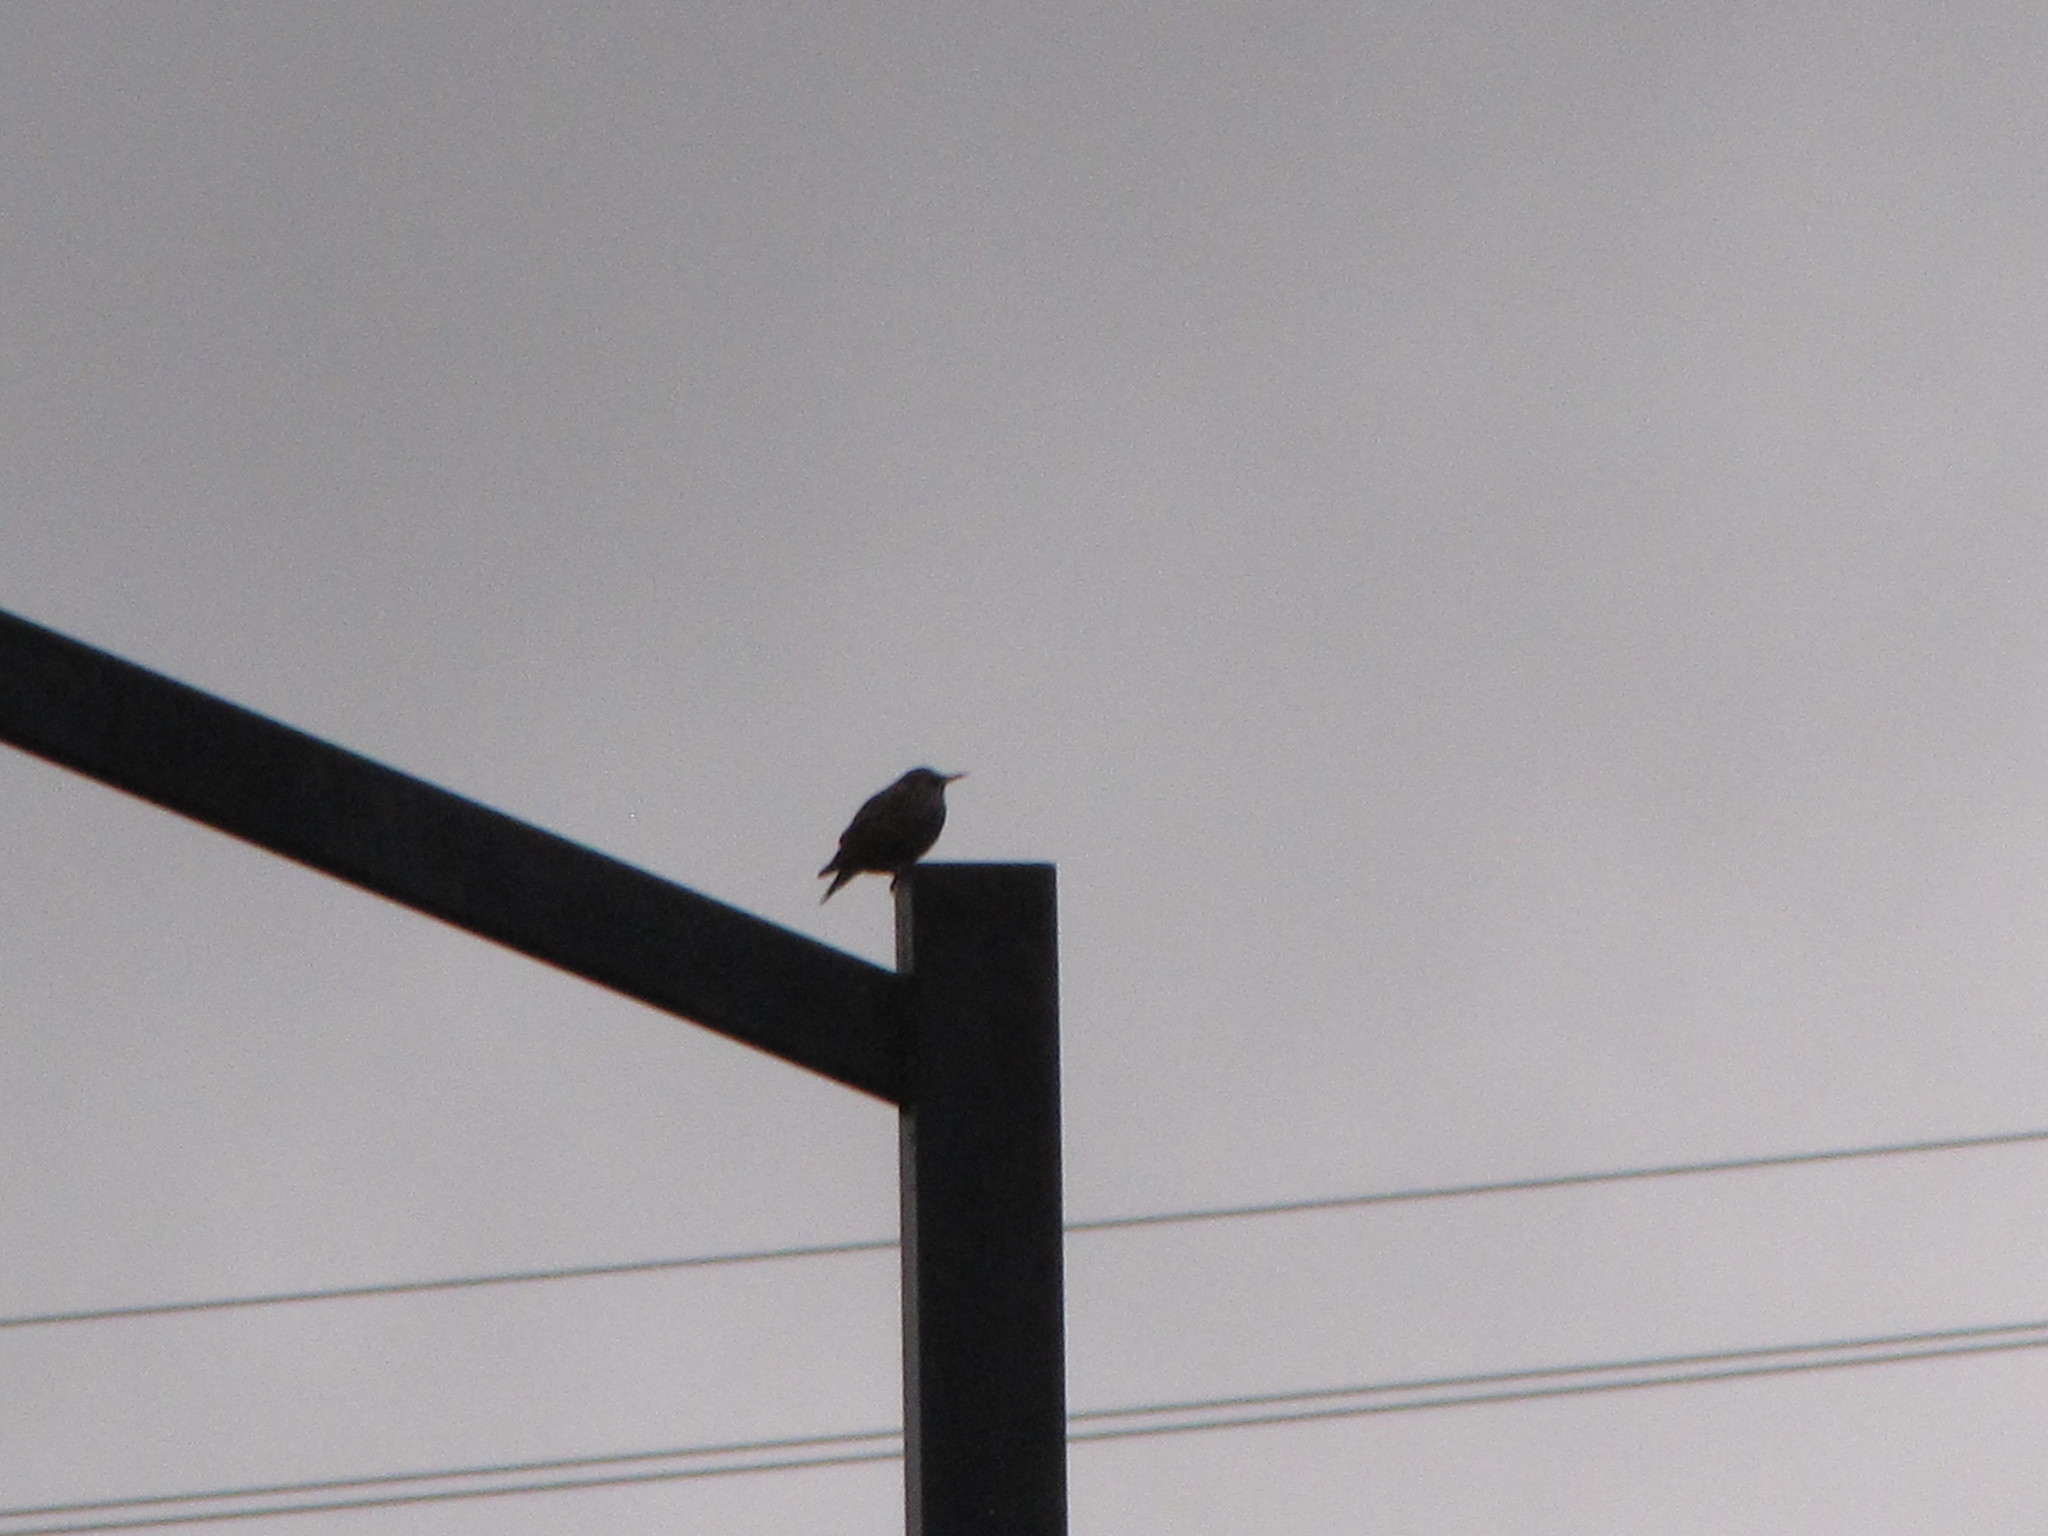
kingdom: Animalia
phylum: Chordata
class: Aves
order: Passeriformes
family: Sturnidae
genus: Sturnus
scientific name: Sturnus vulgaris
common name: Common starling
